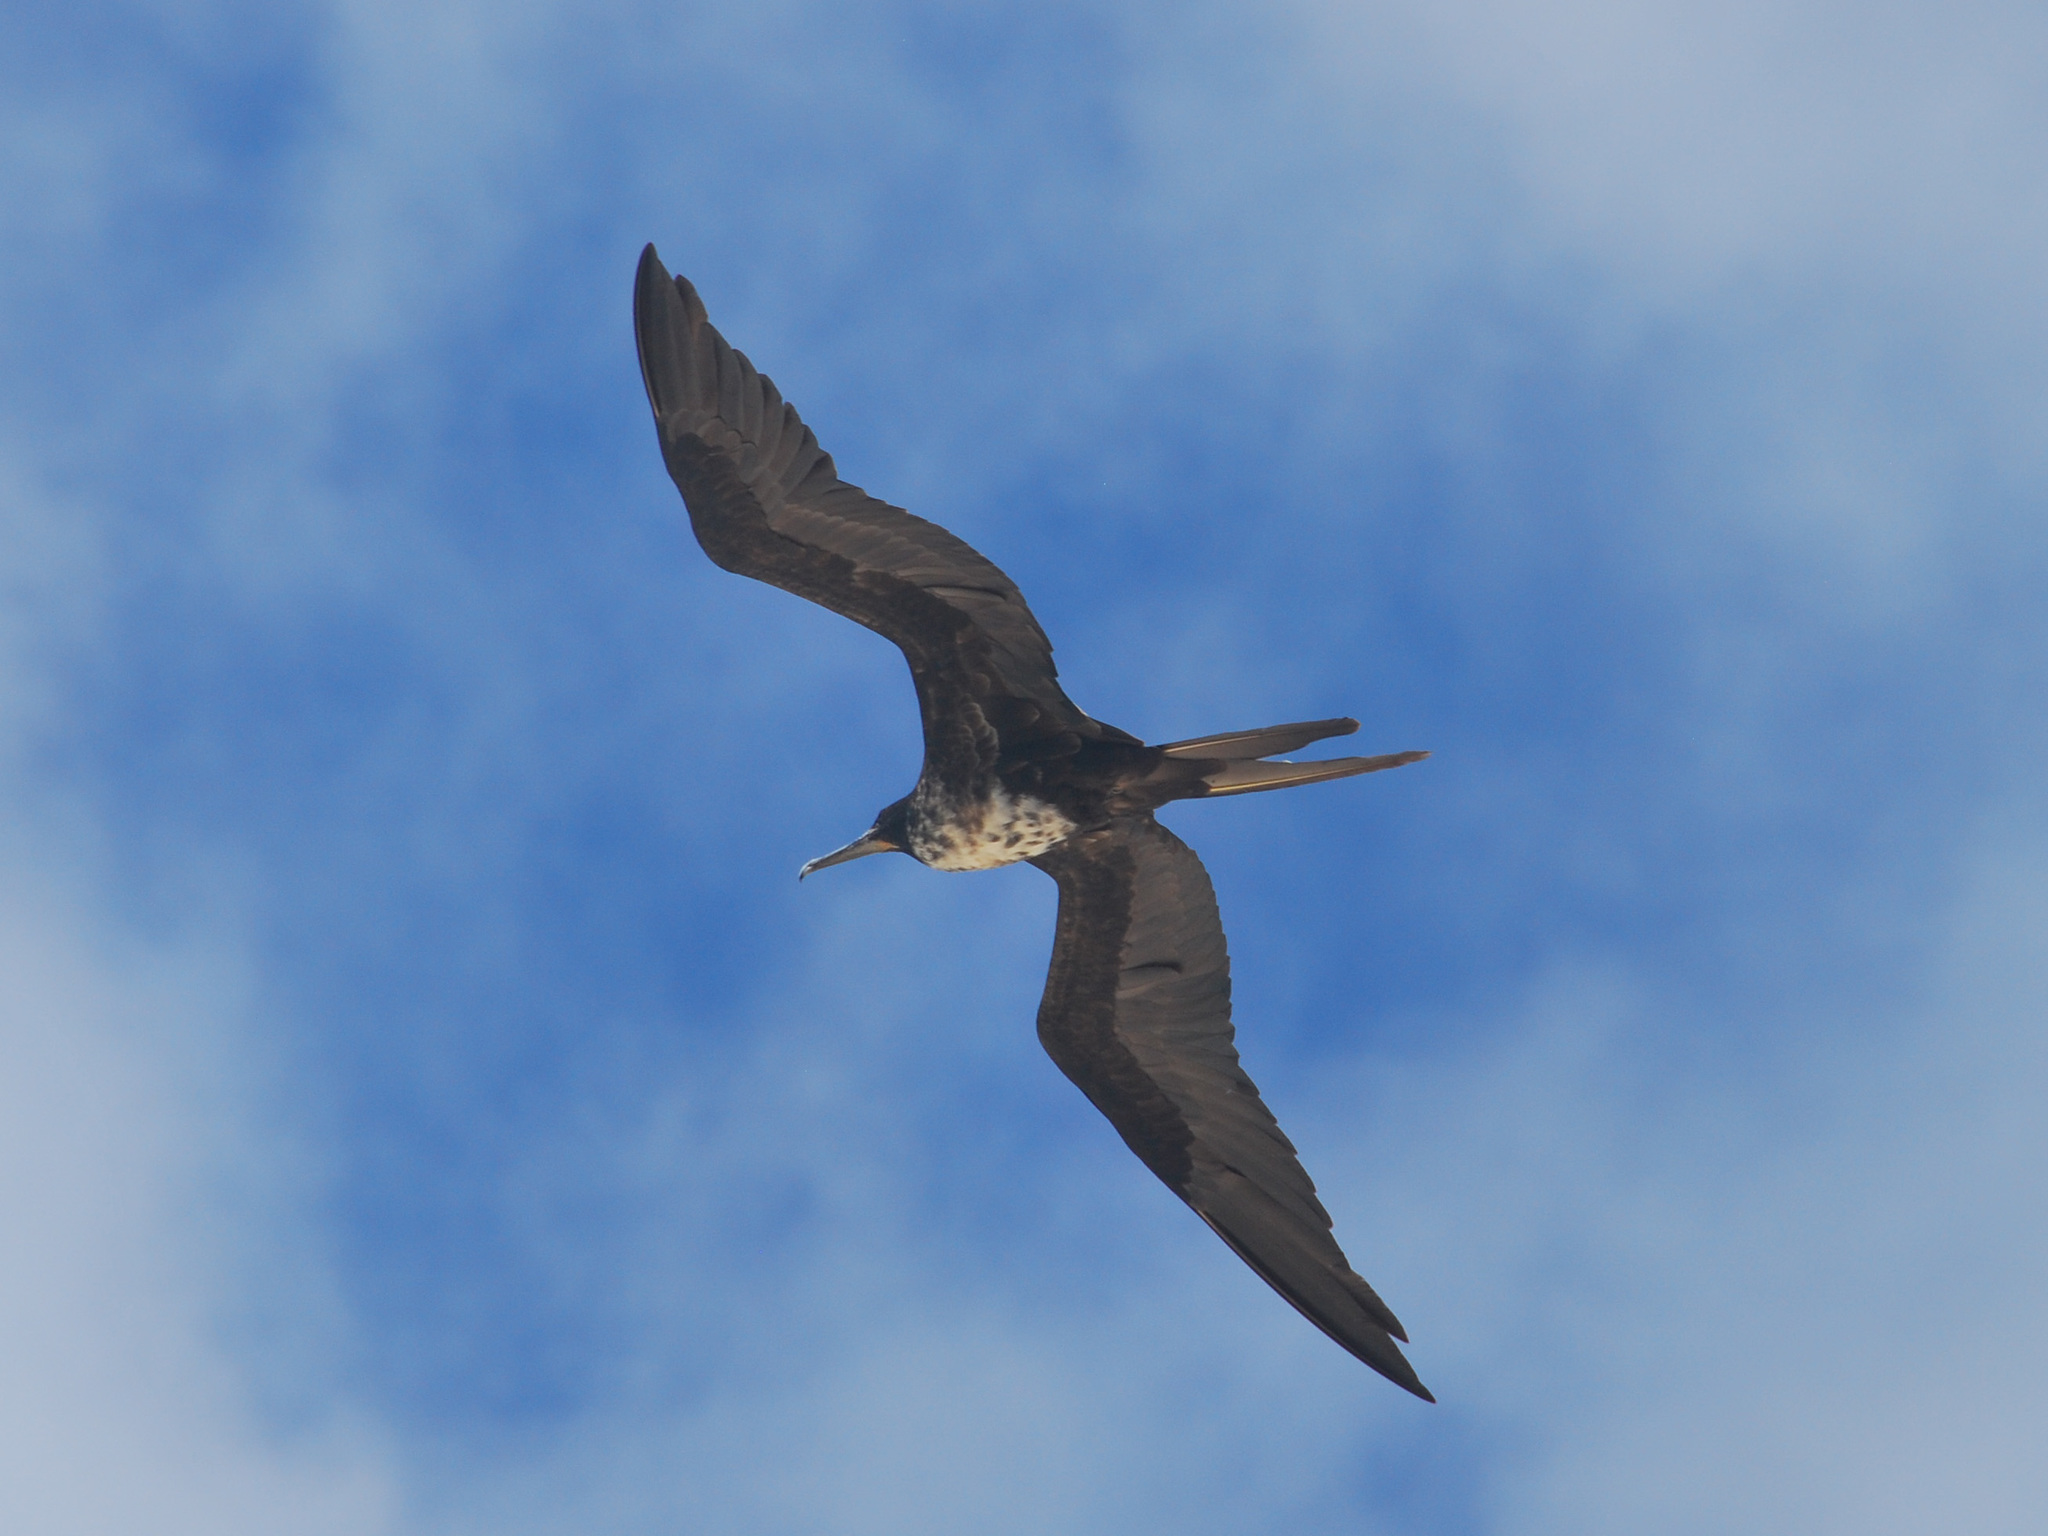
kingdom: Animalia
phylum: Chordata
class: Aves
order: Suliformes
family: Fregatidae
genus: Fregata
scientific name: Fregata magnificens
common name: Magnificent frigatebird
